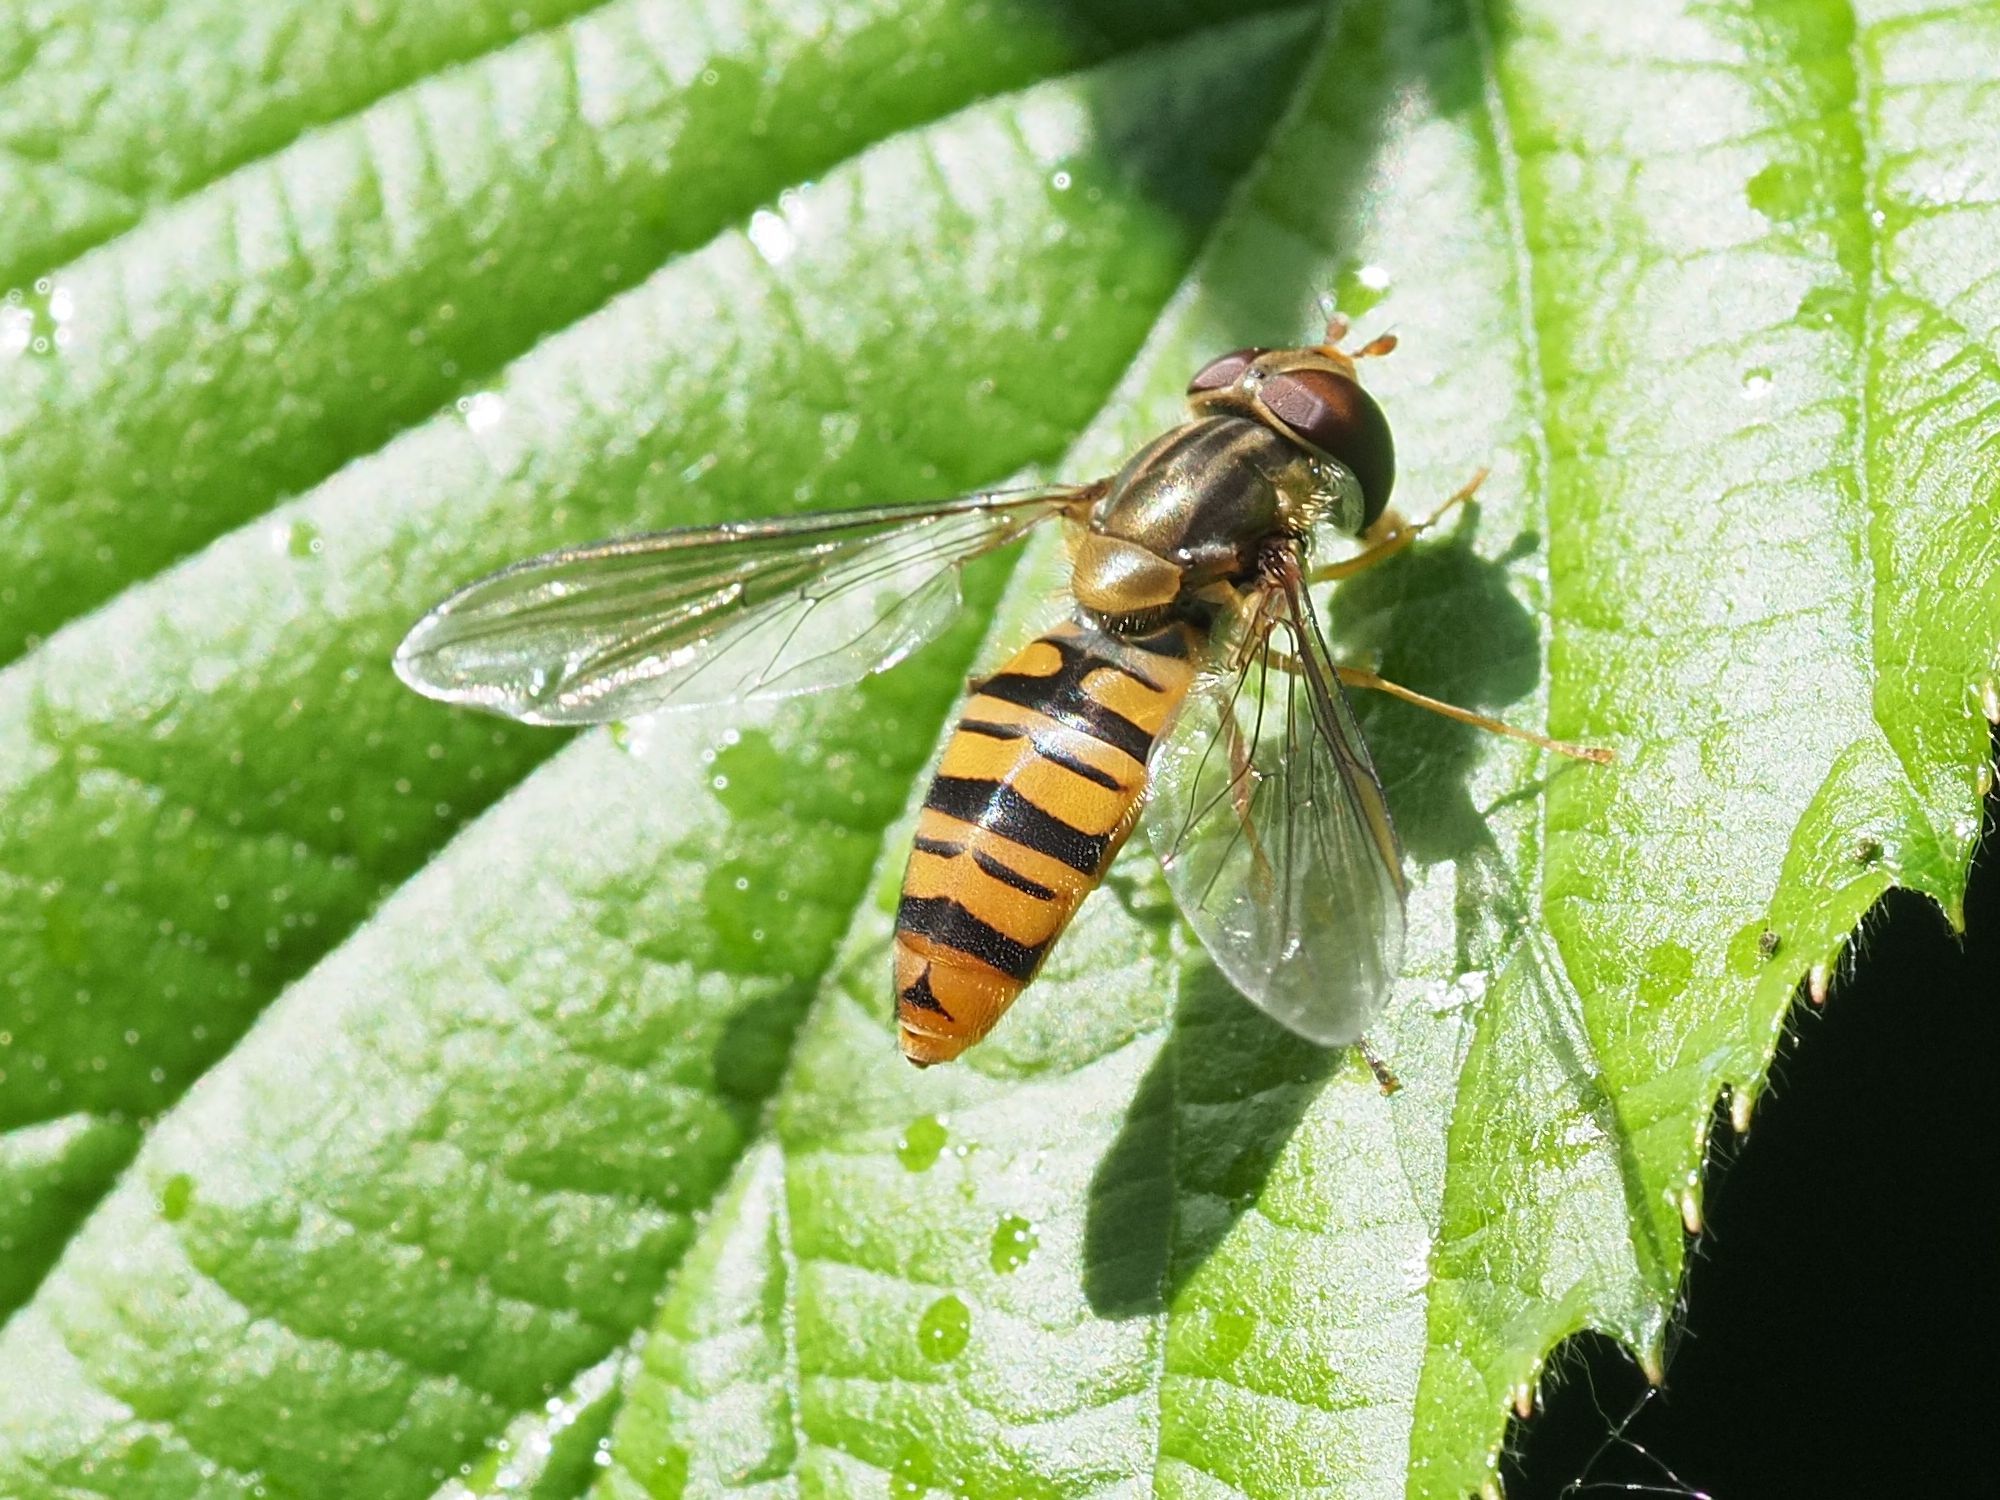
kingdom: Animalia
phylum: Arthropoda
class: Insecta
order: Diptera
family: Syrphidae
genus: Episyrphus
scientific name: Episyrphus balteatus
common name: Marmalade hoverfly
